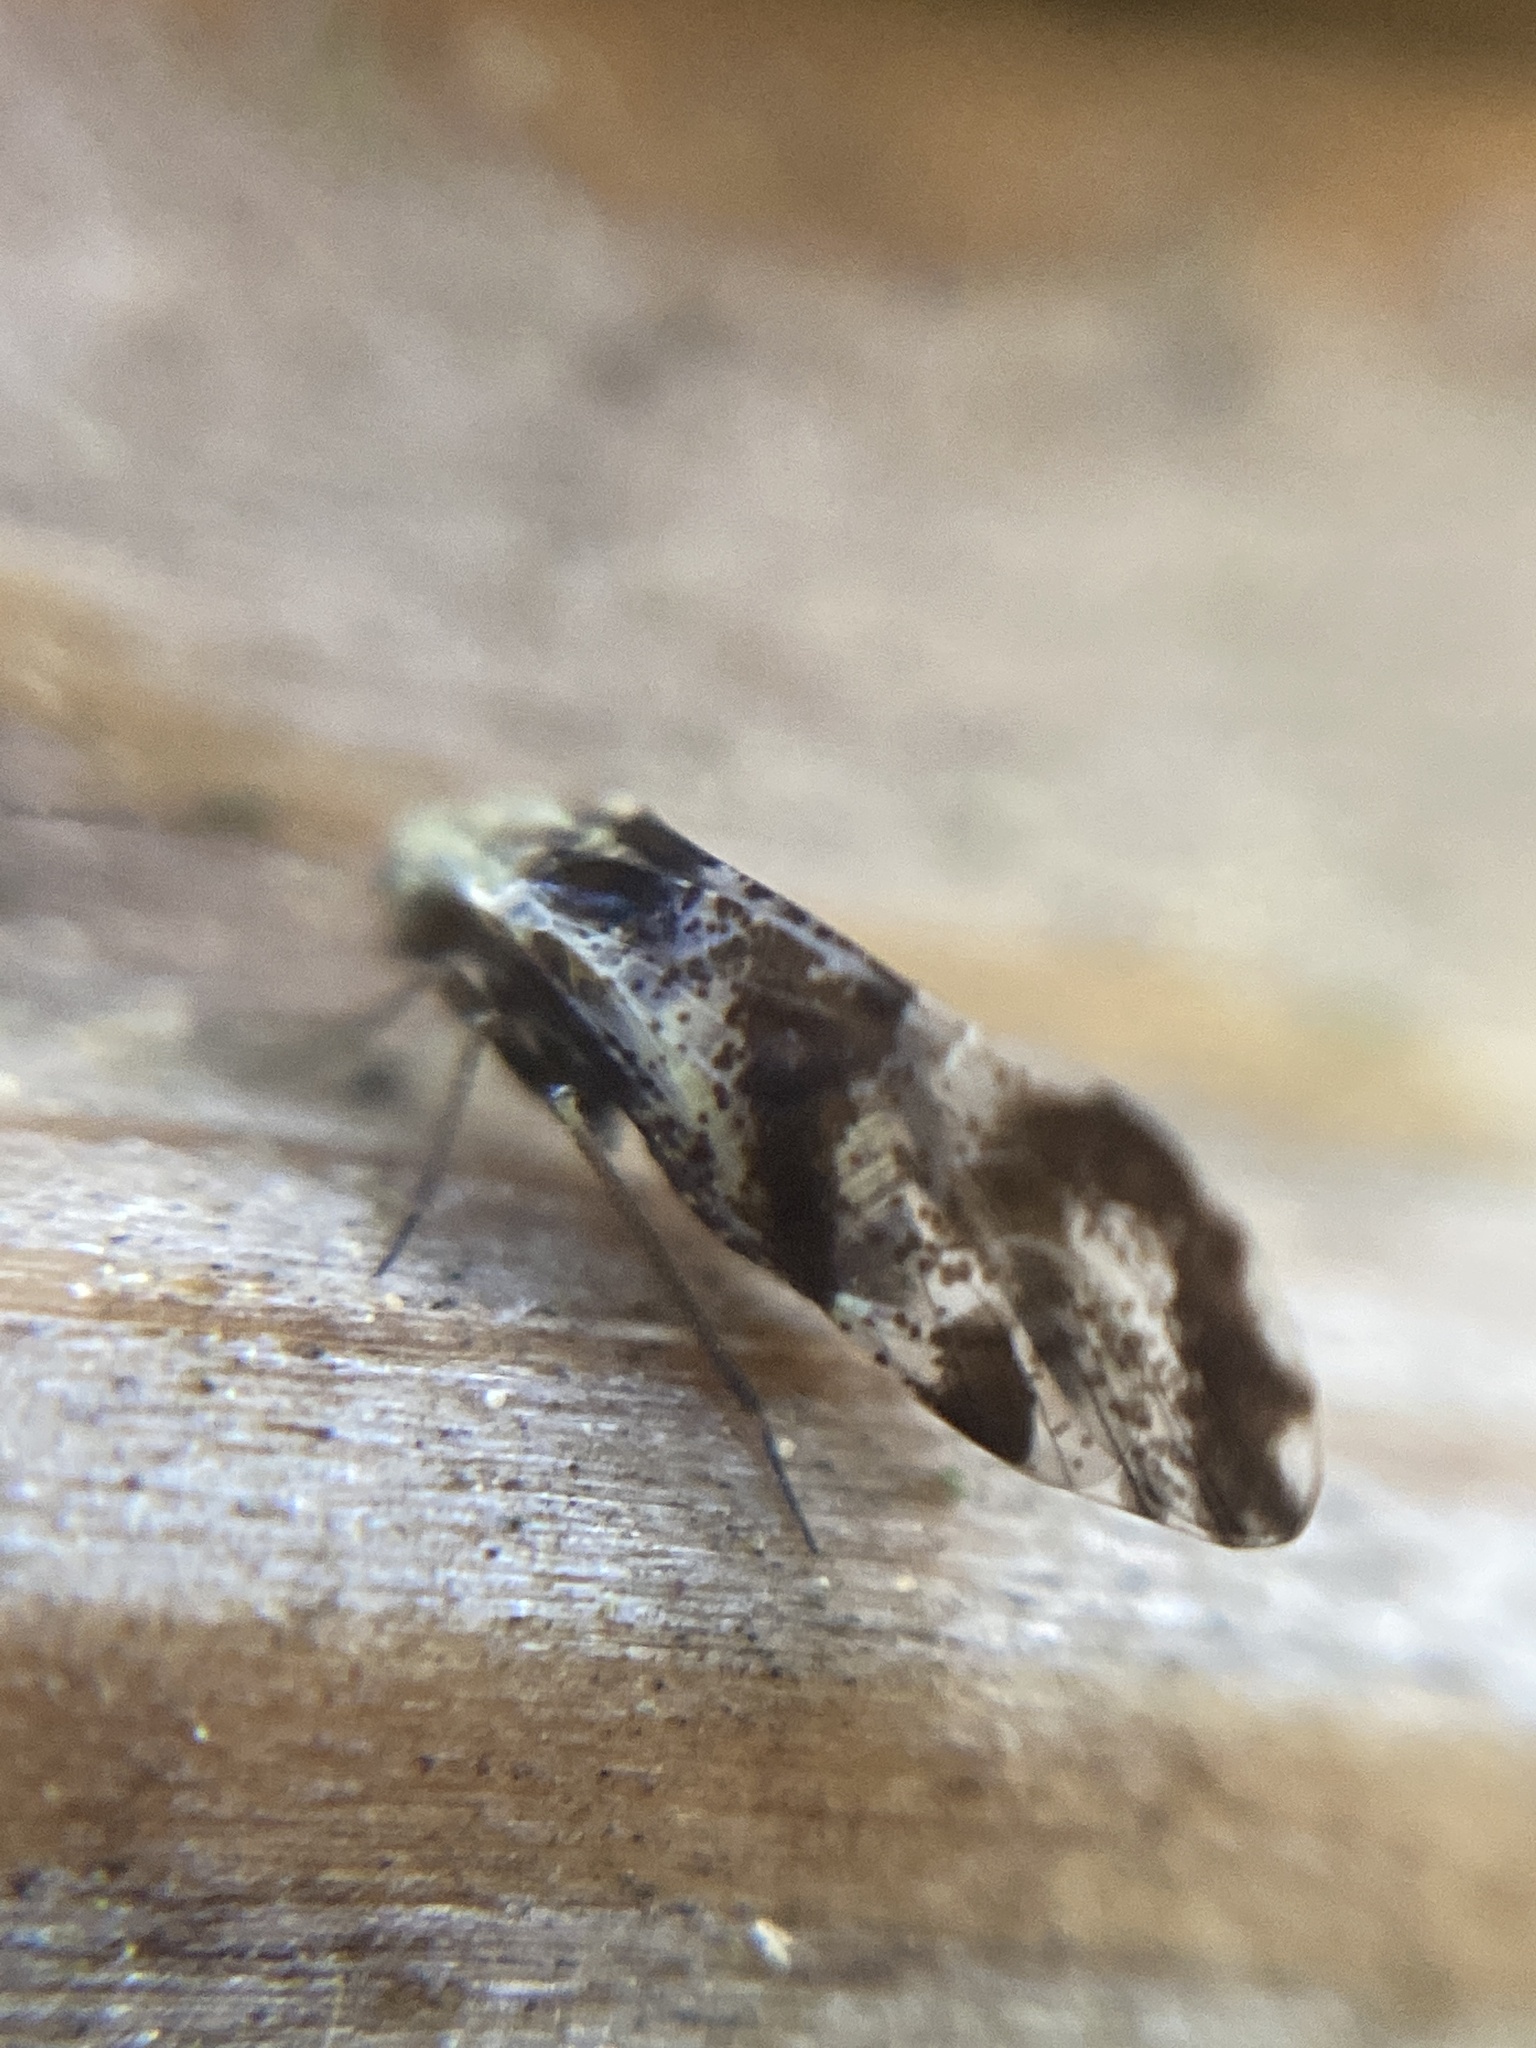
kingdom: Animalia
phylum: Arthropoda
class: Insecta
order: Psocodea
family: Psocidae
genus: Loensia
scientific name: Loensia fasciata
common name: Common bark louse
